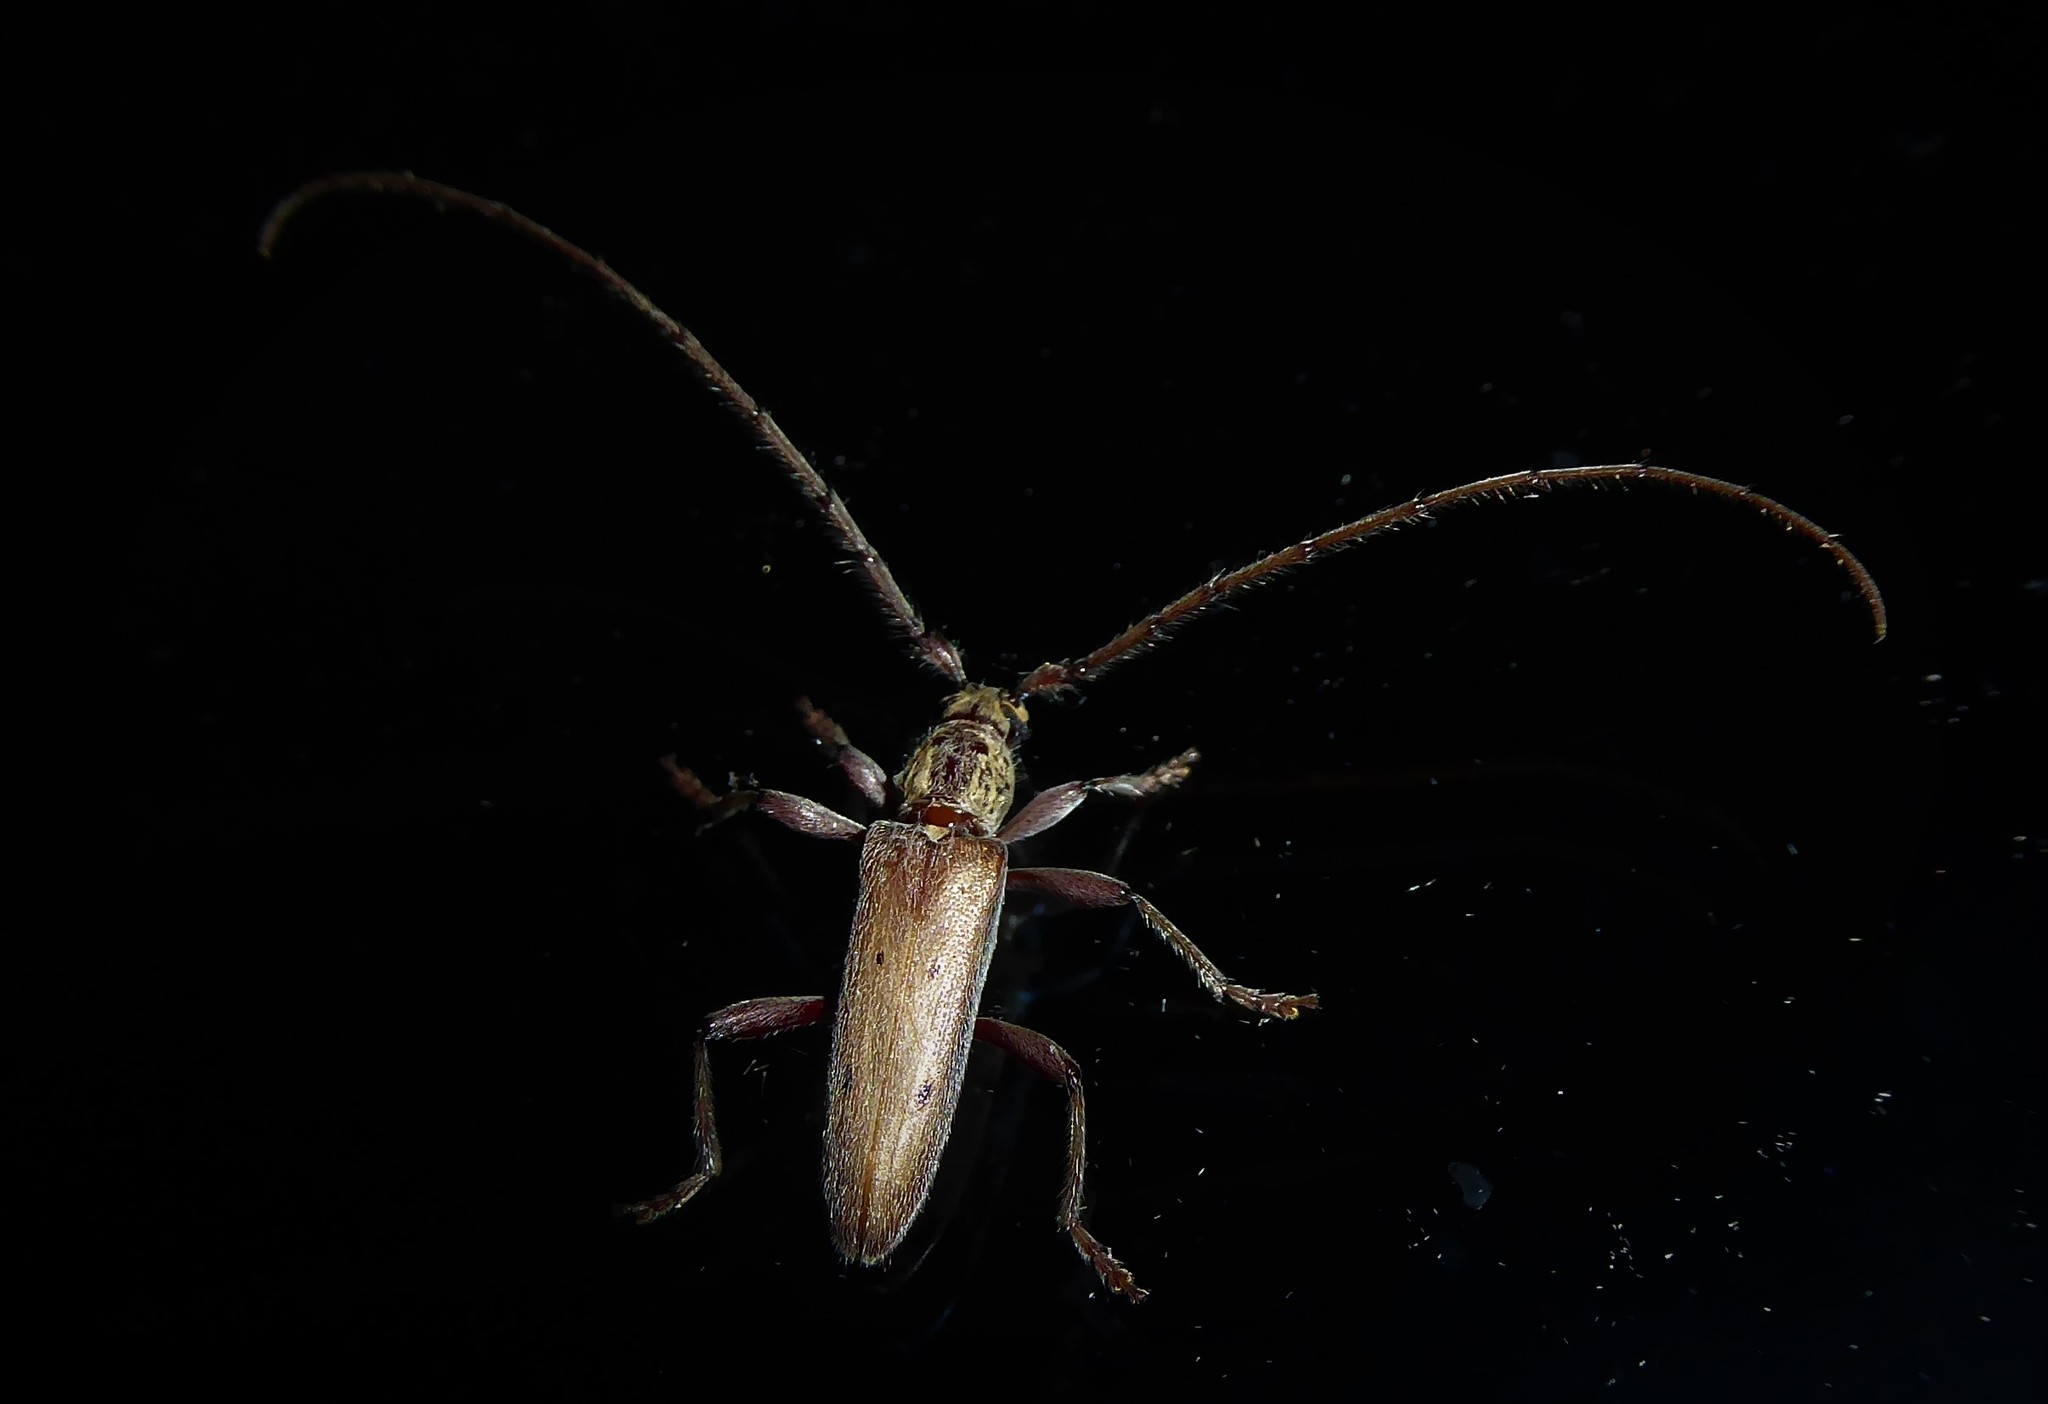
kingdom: Animalia
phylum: Arthropoda
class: Insecta
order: Coleoptera
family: Cerambycidae
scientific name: Cerambycidae
